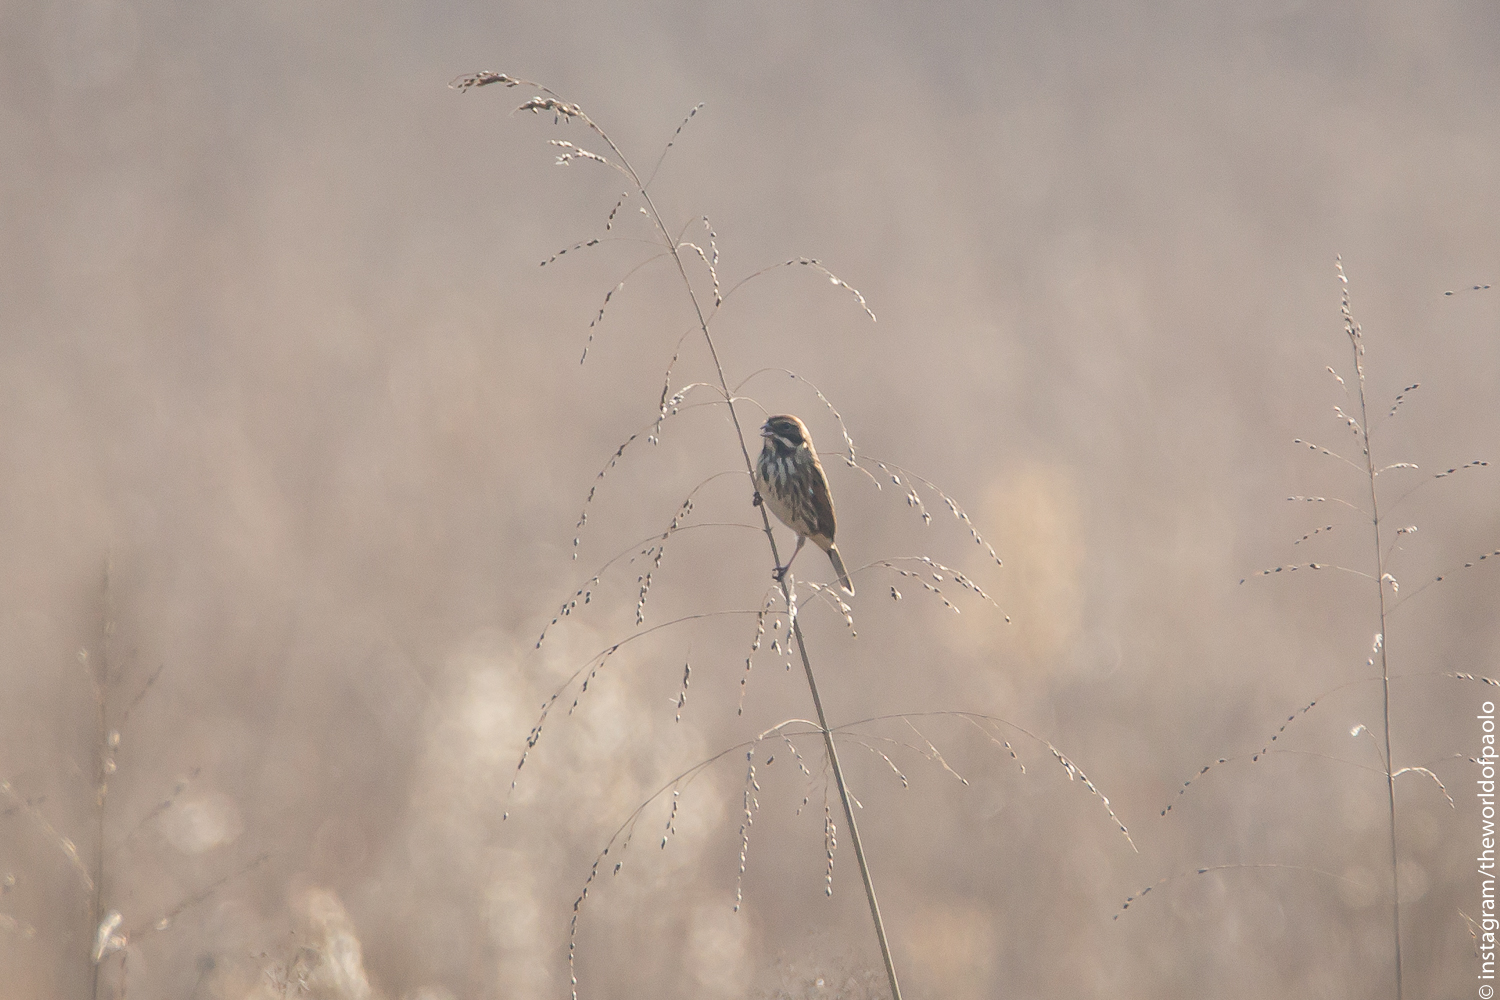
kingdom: Animalia
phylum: Chordata
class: Aves
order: Passeriformes
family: Emberizidae
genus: Emberiza
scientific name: Emberiza schoeniclus
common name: Reed bunting
